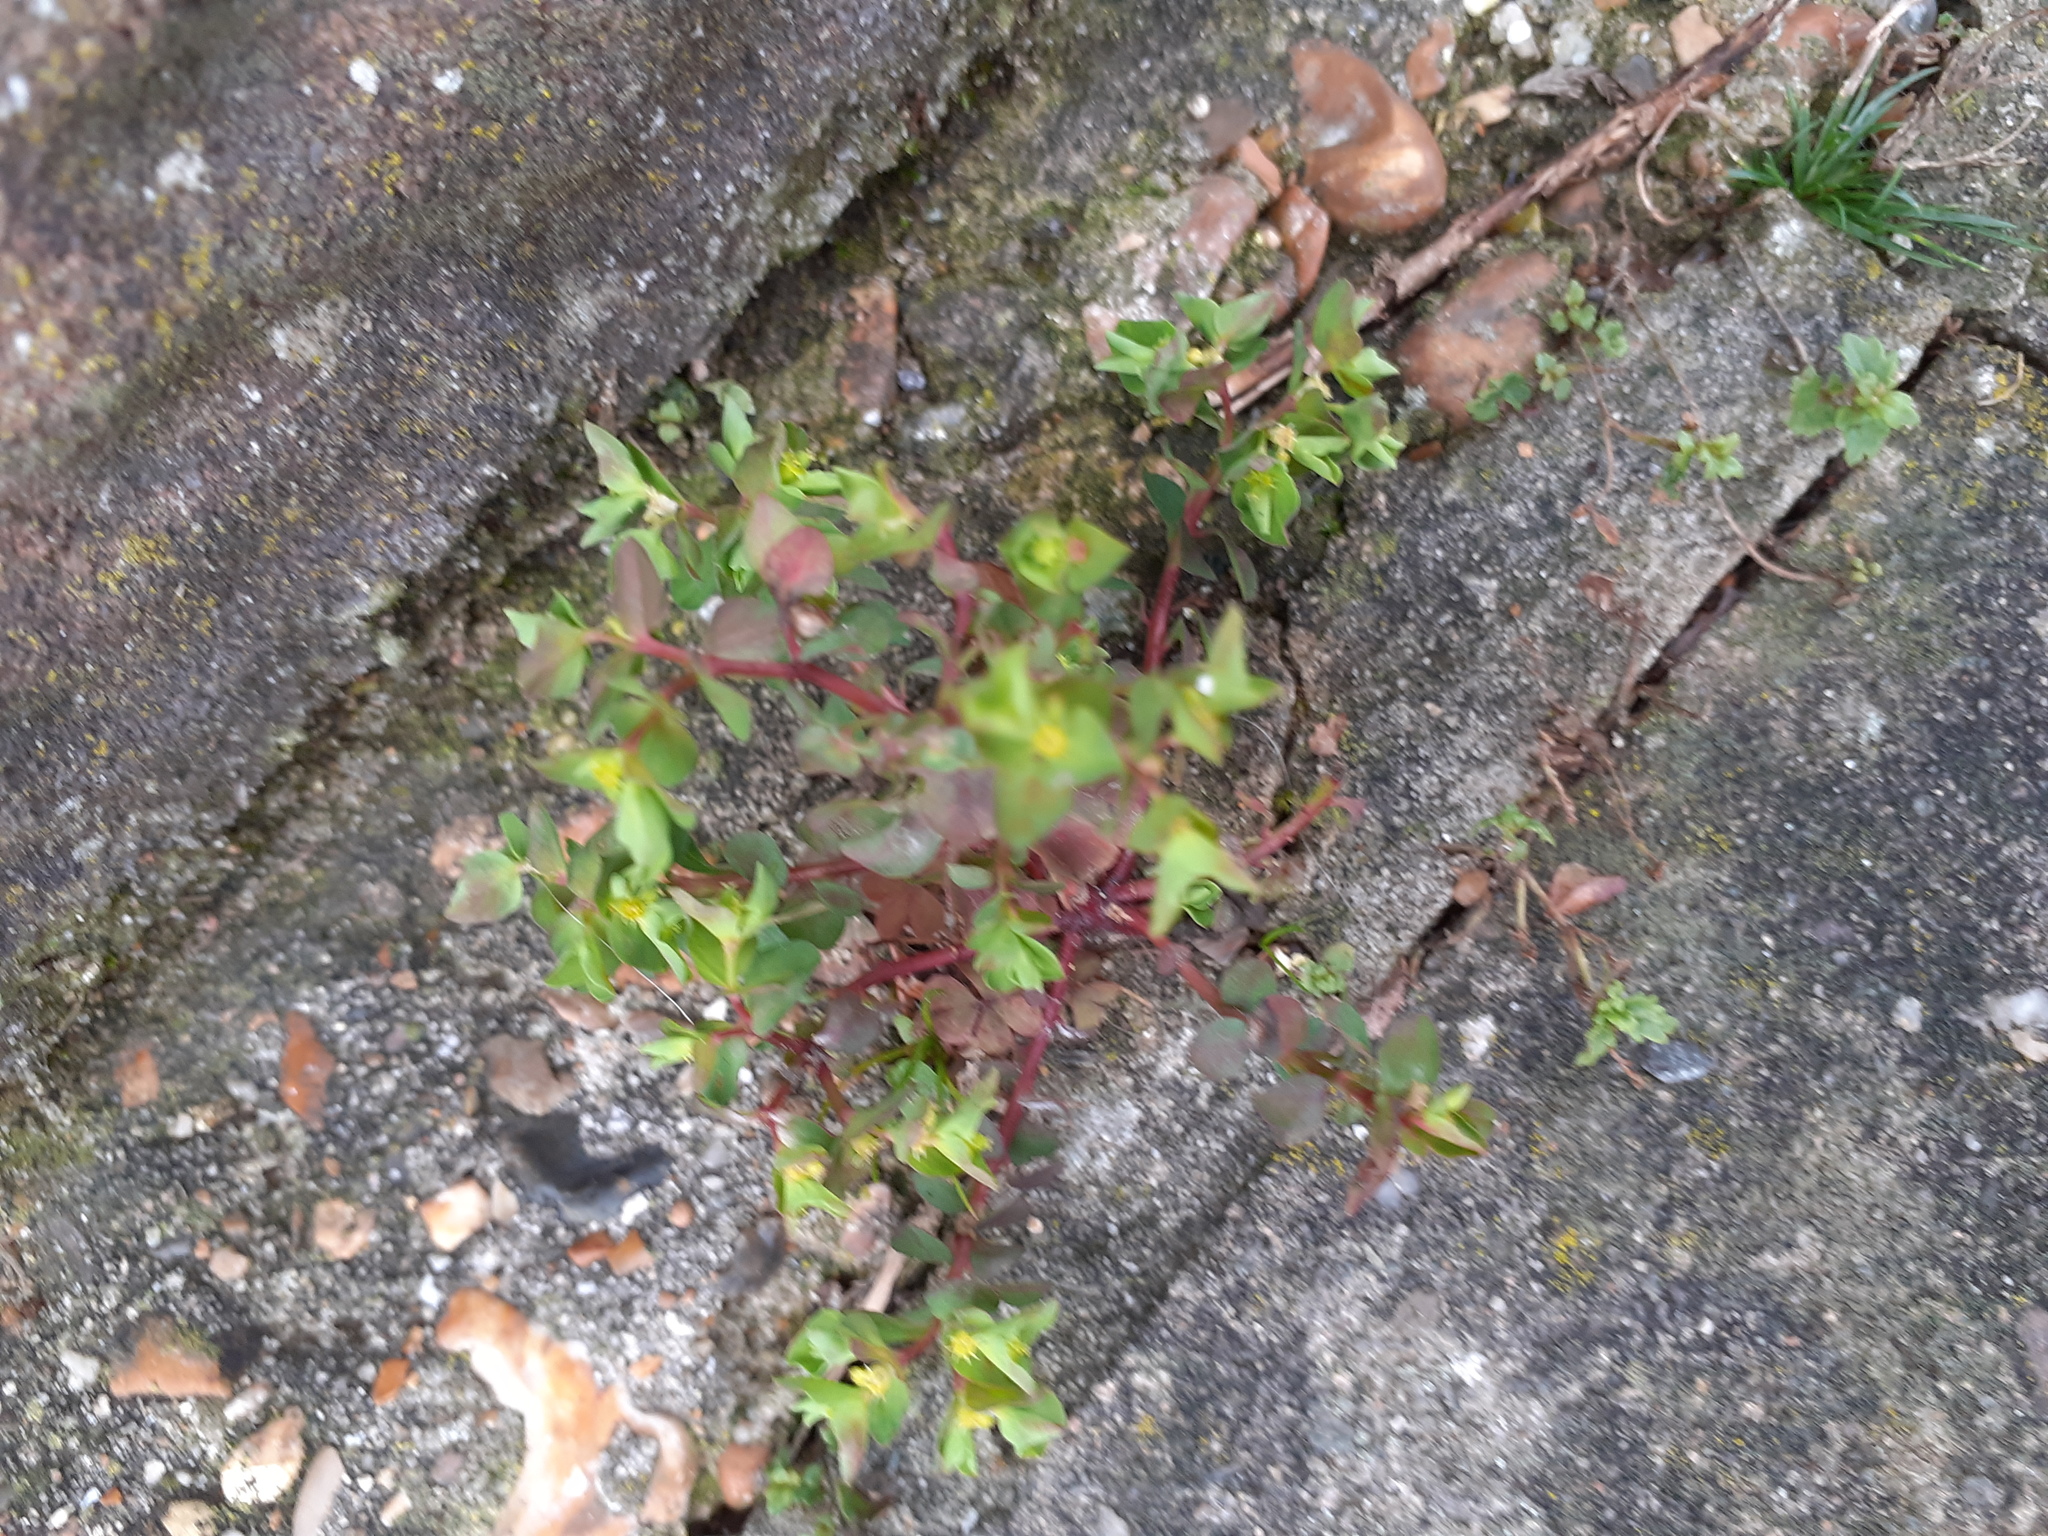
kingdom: Plantae
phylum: Tracheophyta
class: Magnoliopsida
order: Malpighiales
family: Euphorbiaceae
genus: Euphorbia
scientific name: Euphorbia peplus
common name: Petty spurge
